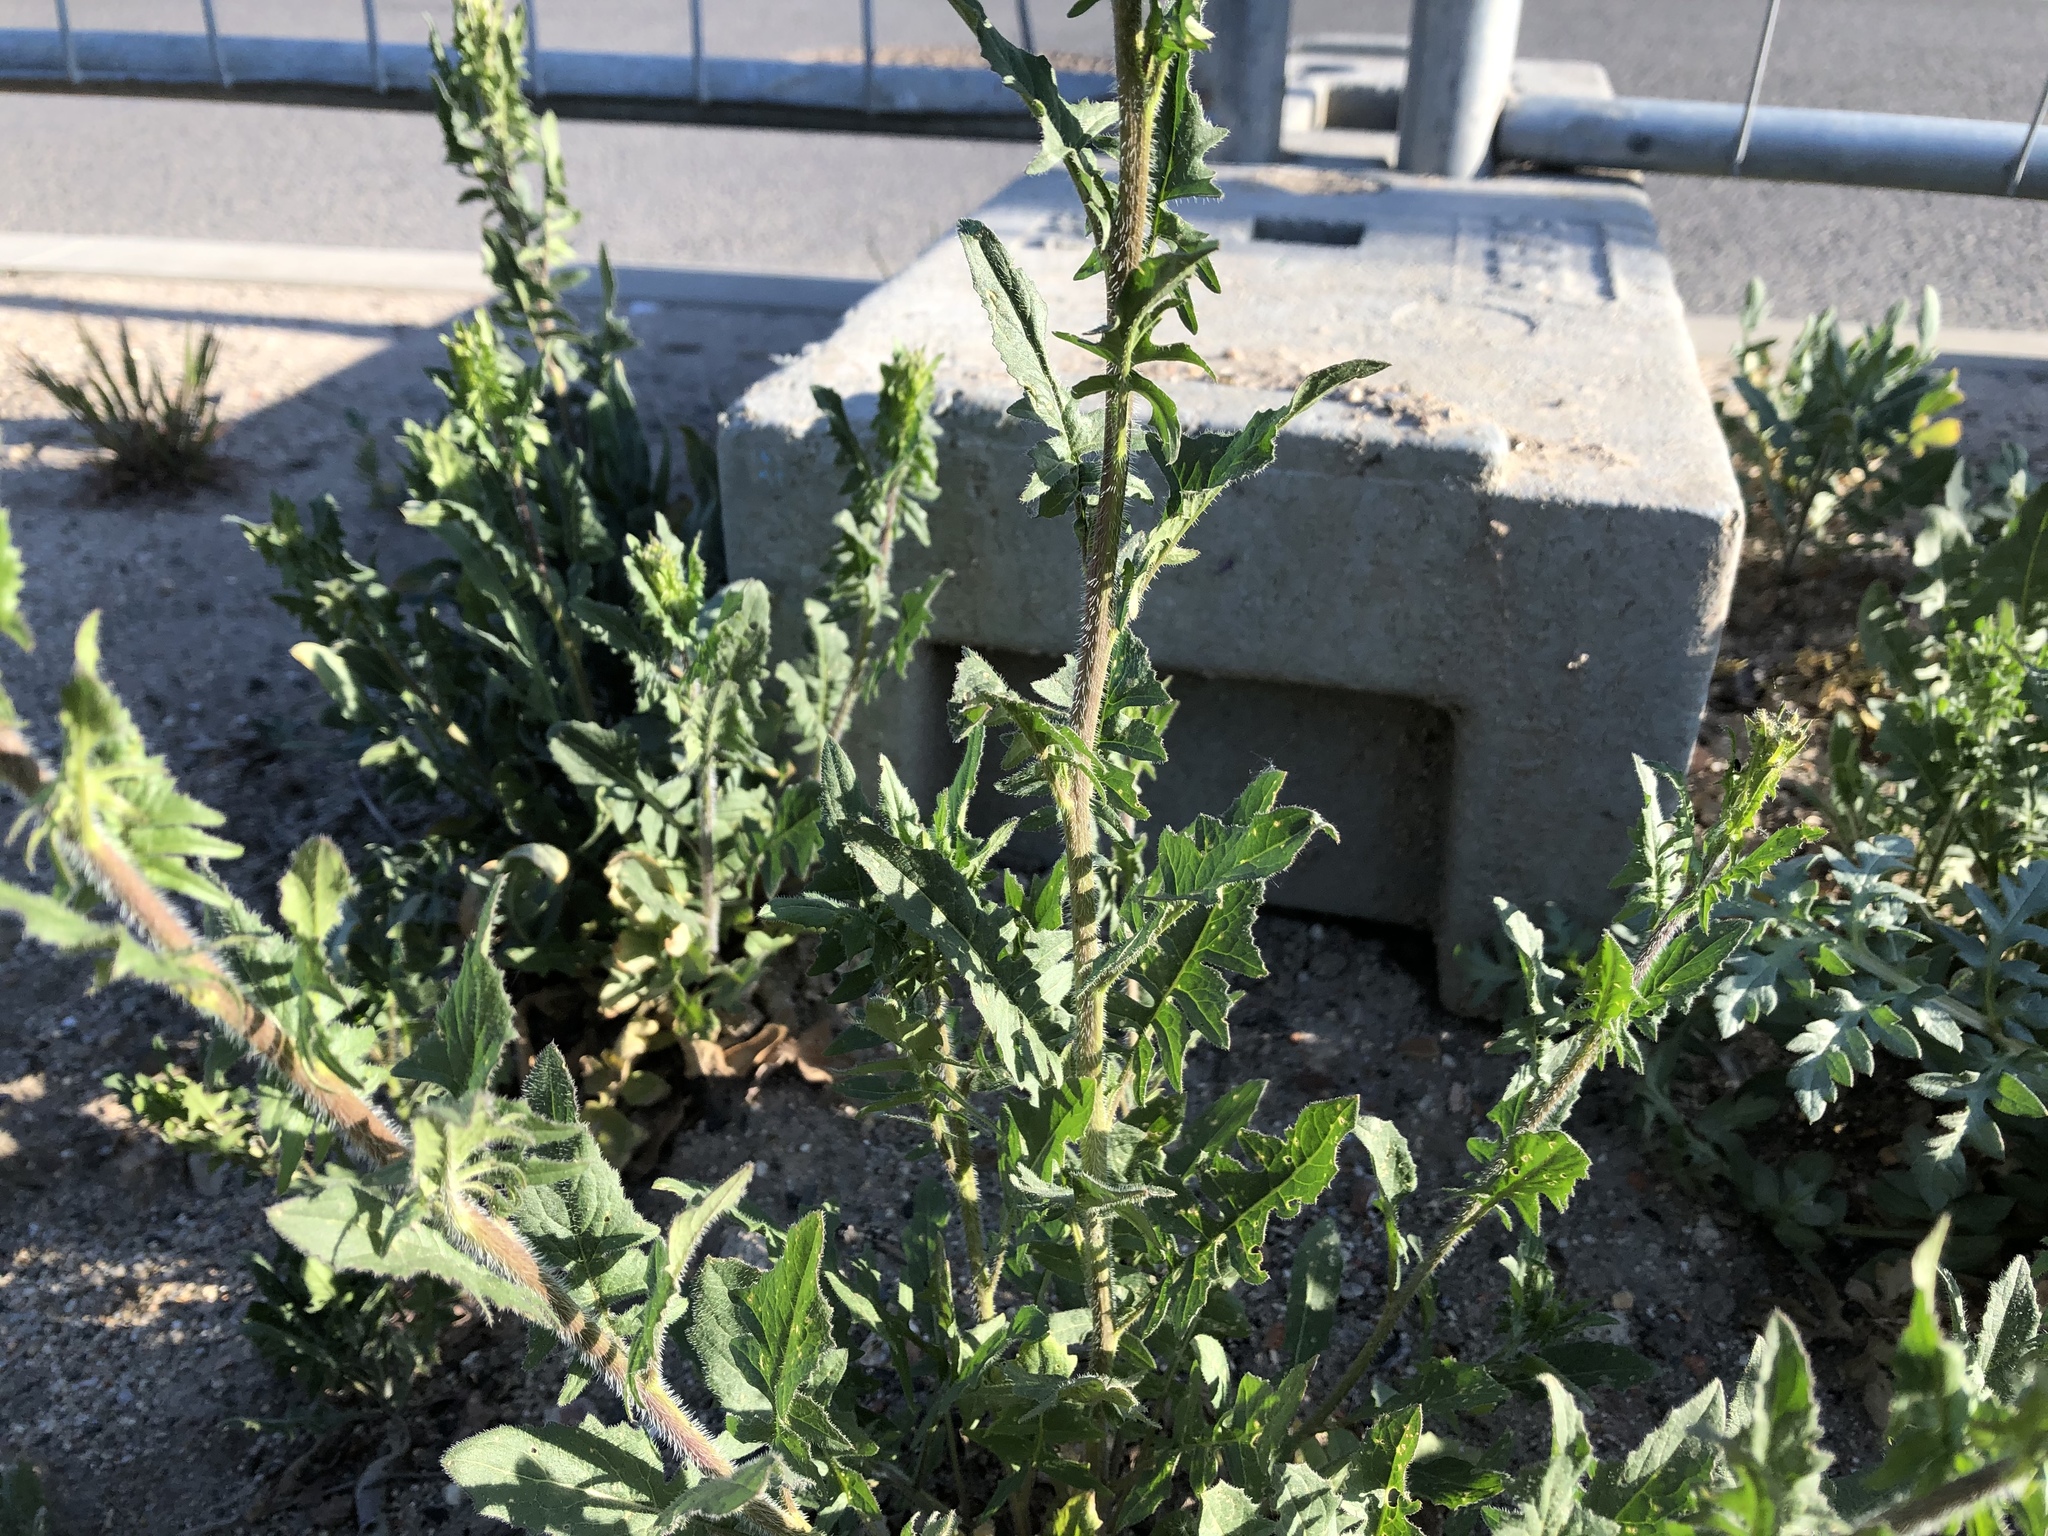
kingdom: Plantae
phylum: Tracheophyta
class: Magnoliopsida
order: Brassicales
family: Brassicaceae
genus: Sisymbrium
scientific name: Sisymbrium loeselii
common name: False london-rocket
